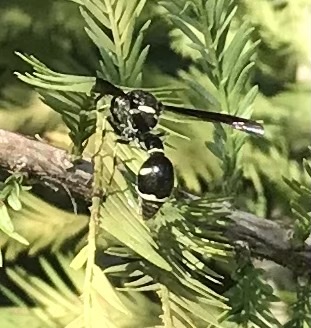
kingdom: Animalia
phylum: Arthropoda
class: Insecta
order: Hymenoptera
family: Vespidae
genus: Eumenes
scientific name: Eumenes fraternus
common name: Fraternal potter wasp
